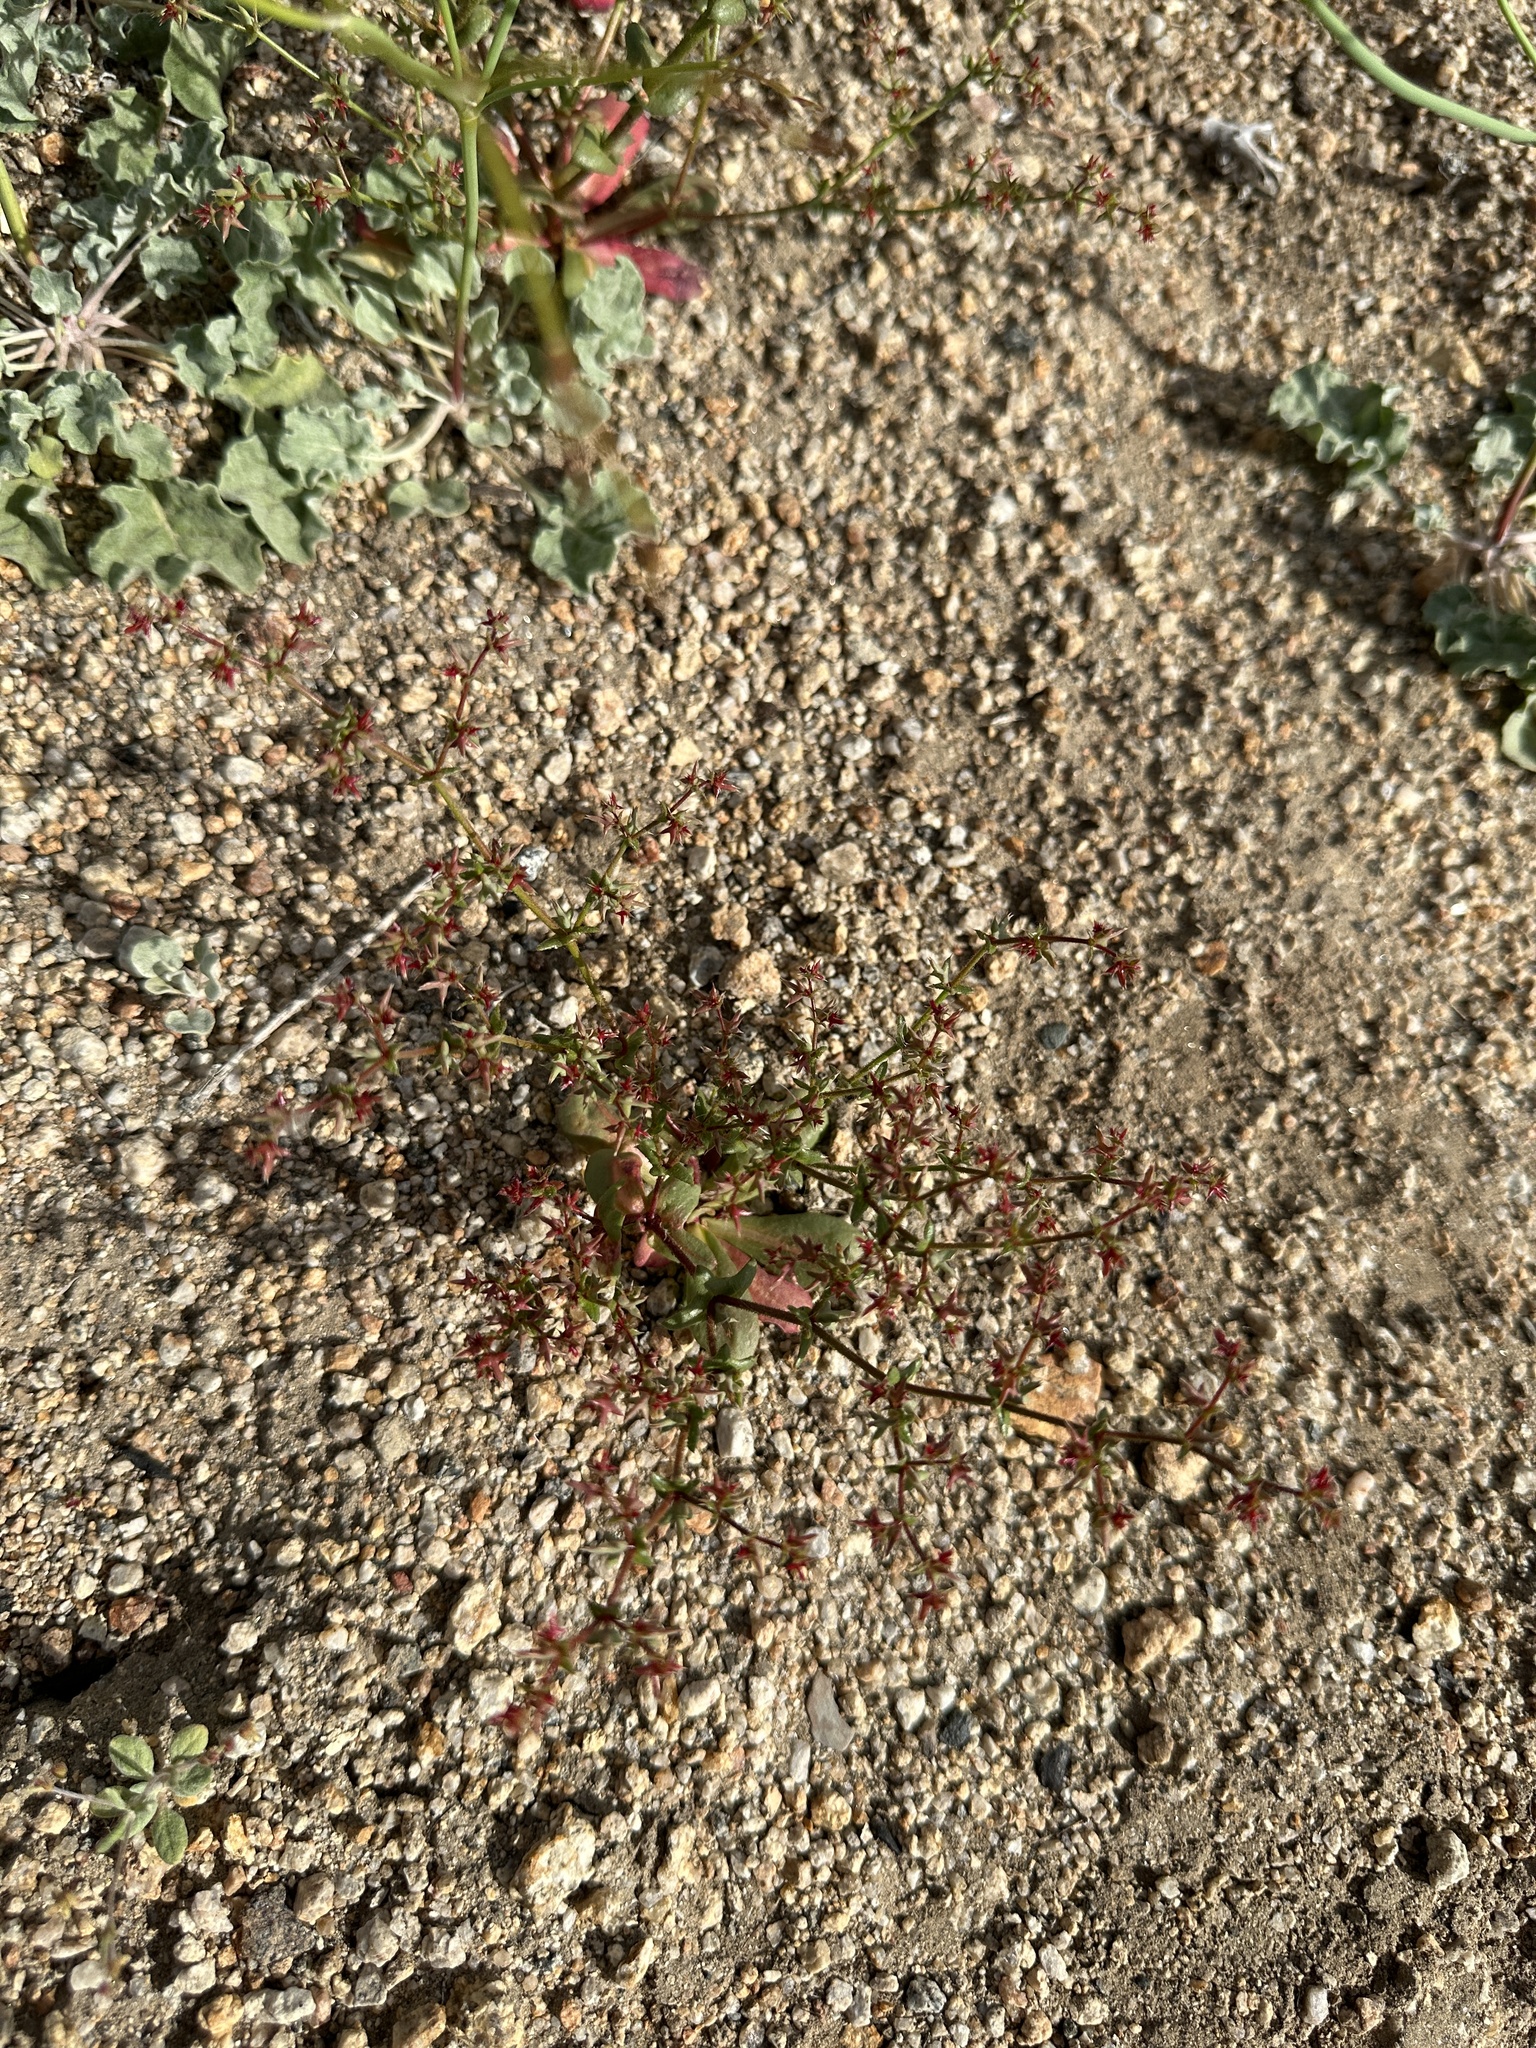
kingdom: Plantae
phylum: Tracheophyta
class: Magnoliopsida
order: Caryophyllales
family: Polygonaceae
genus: Centrostegia
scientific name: Centrostegia thurberi
